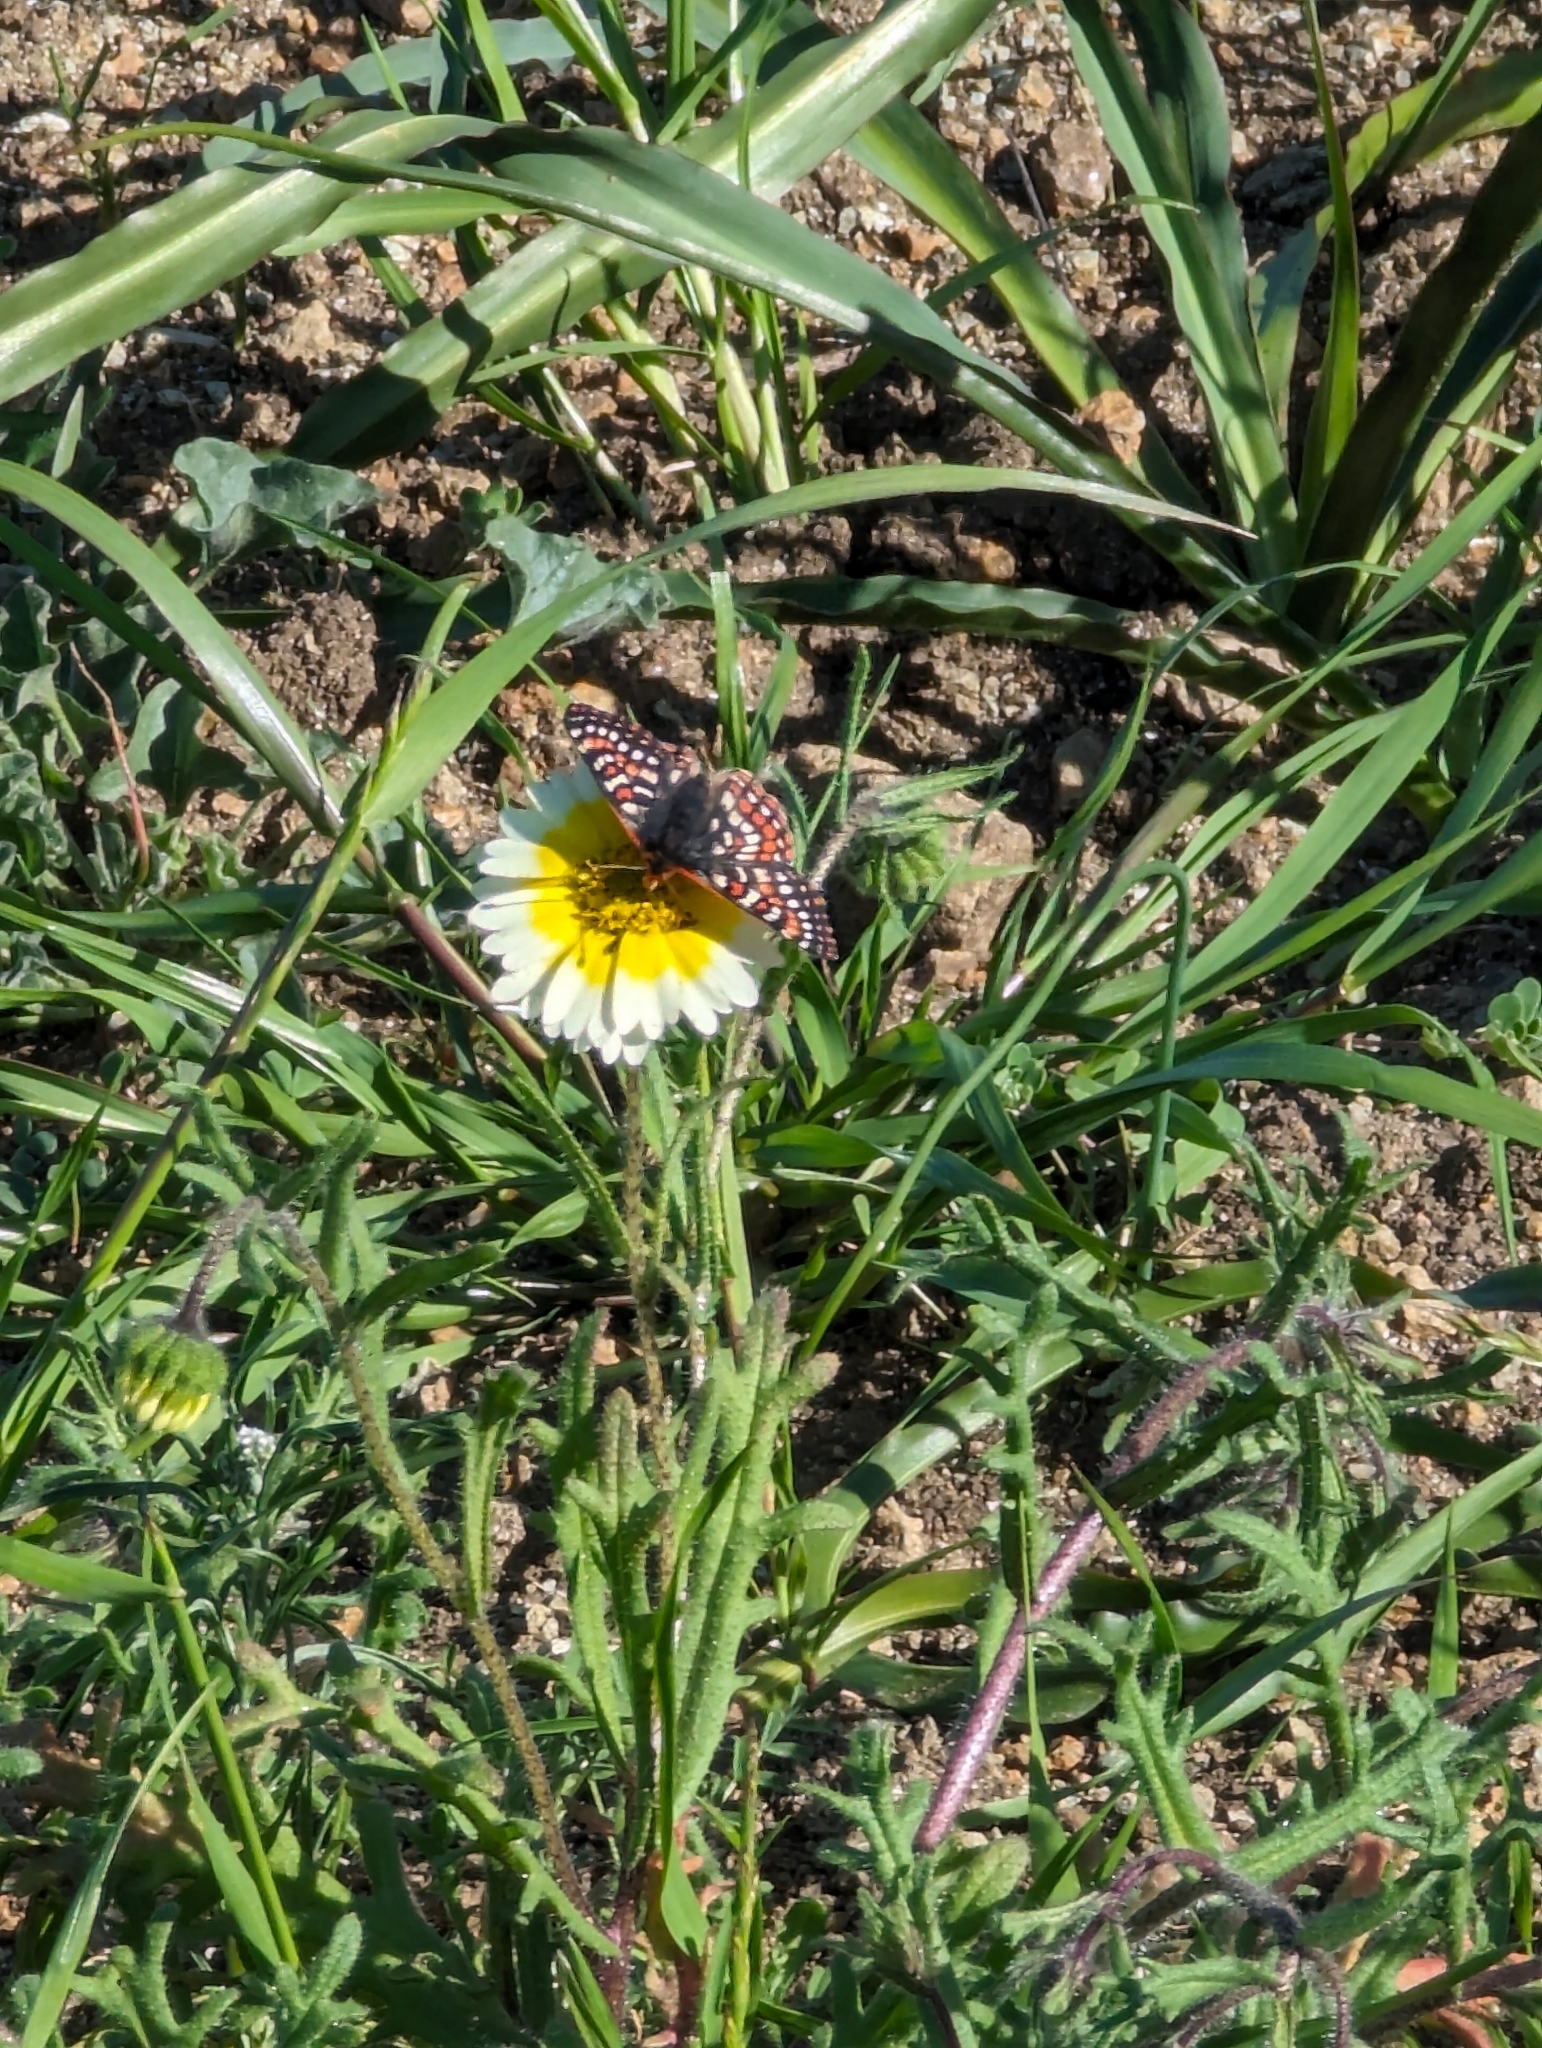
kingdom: Animalia
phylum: Arthropoda
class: Insecta
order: Lepidoptera
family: Nymphalidae
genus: Occidryas
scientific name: Occidryas editha
